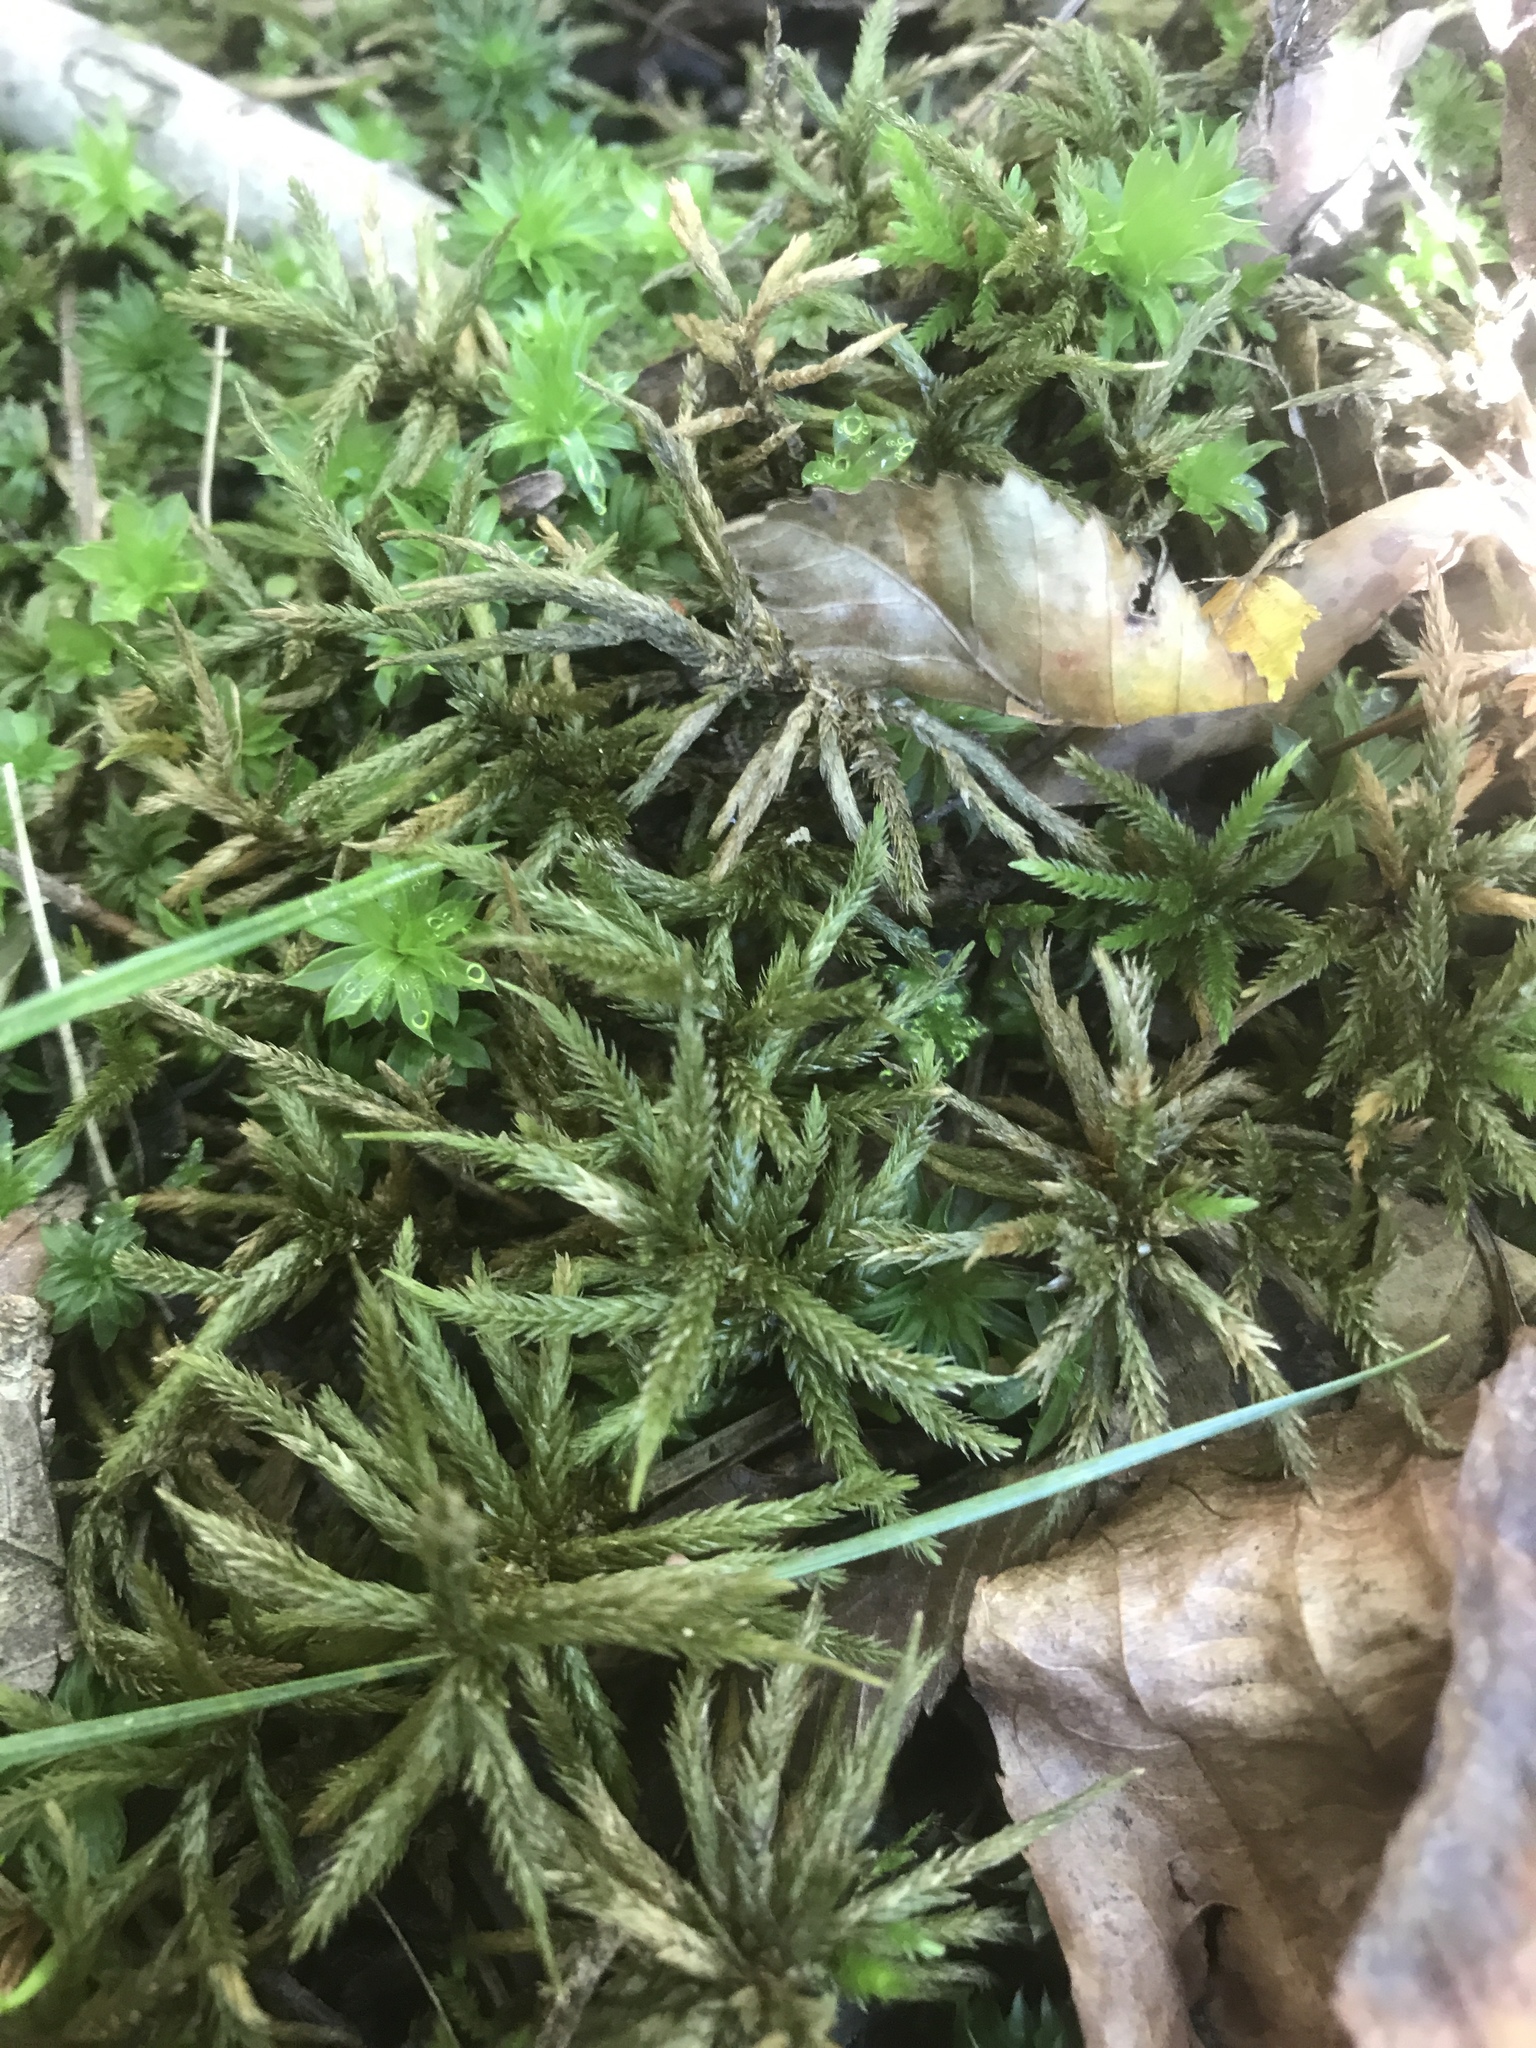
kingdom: Plantae
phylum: Bryophyta
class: Bryopsida
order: Hypnales
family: Climaciaceae
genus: Climacium
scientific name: Climacium americanum
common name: American tree moss
